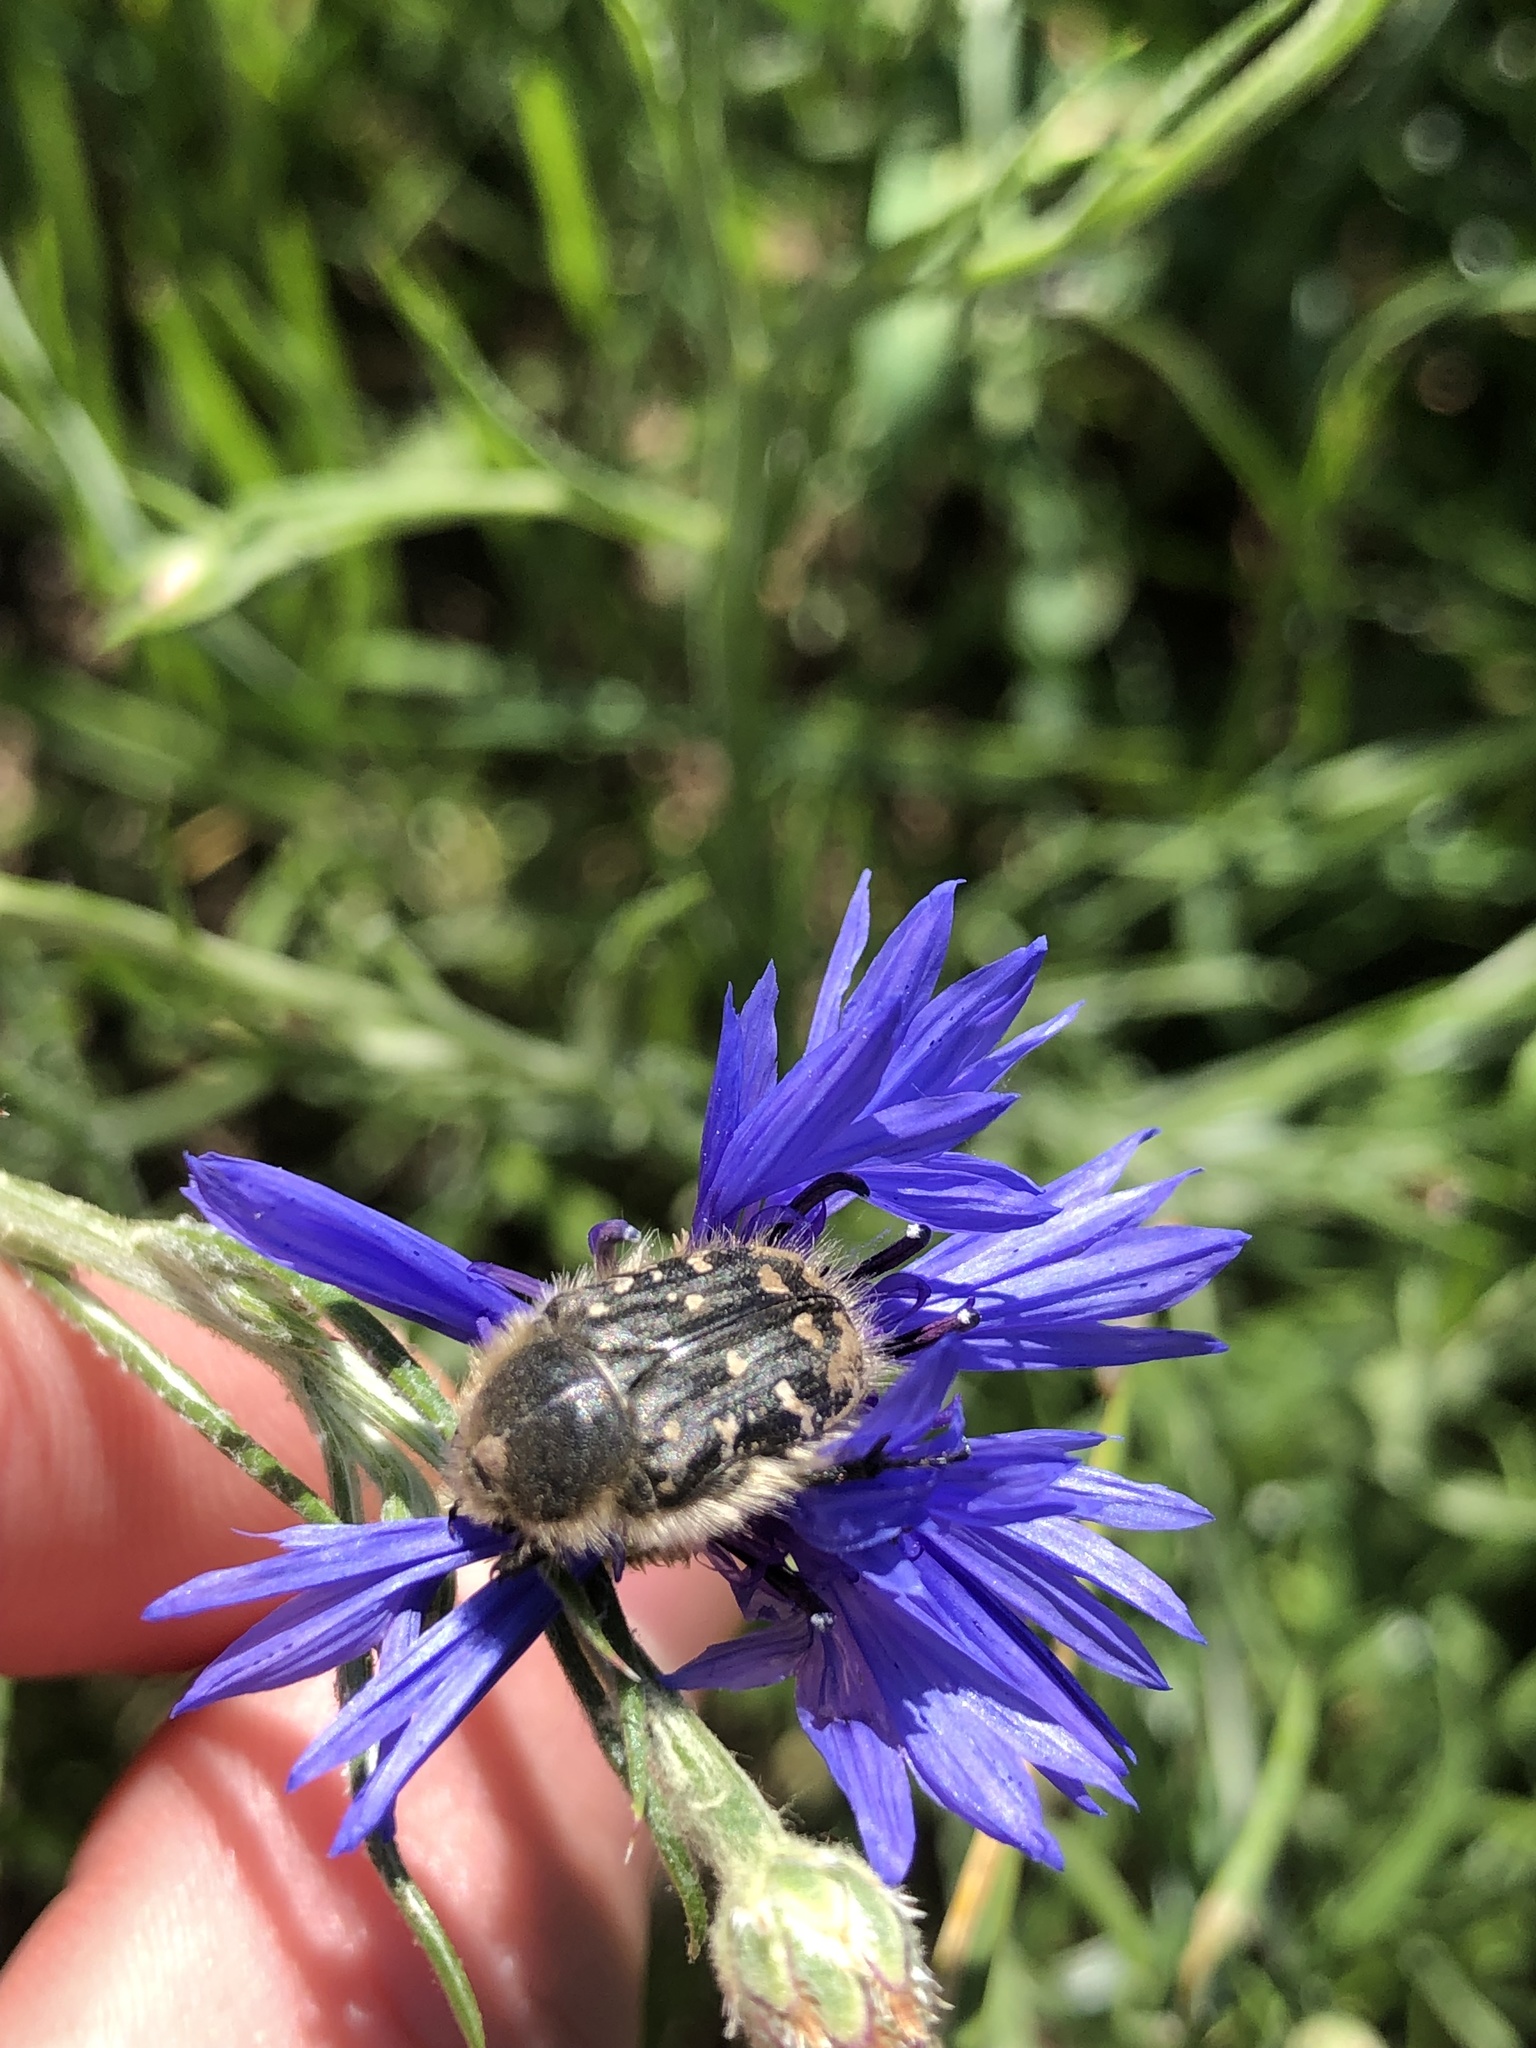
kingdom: Animalia
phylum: Arthropoda
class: Insecta
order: Coleoptera
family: Scarabaeidae
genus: Tropinota
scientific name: Tropinota hirta
